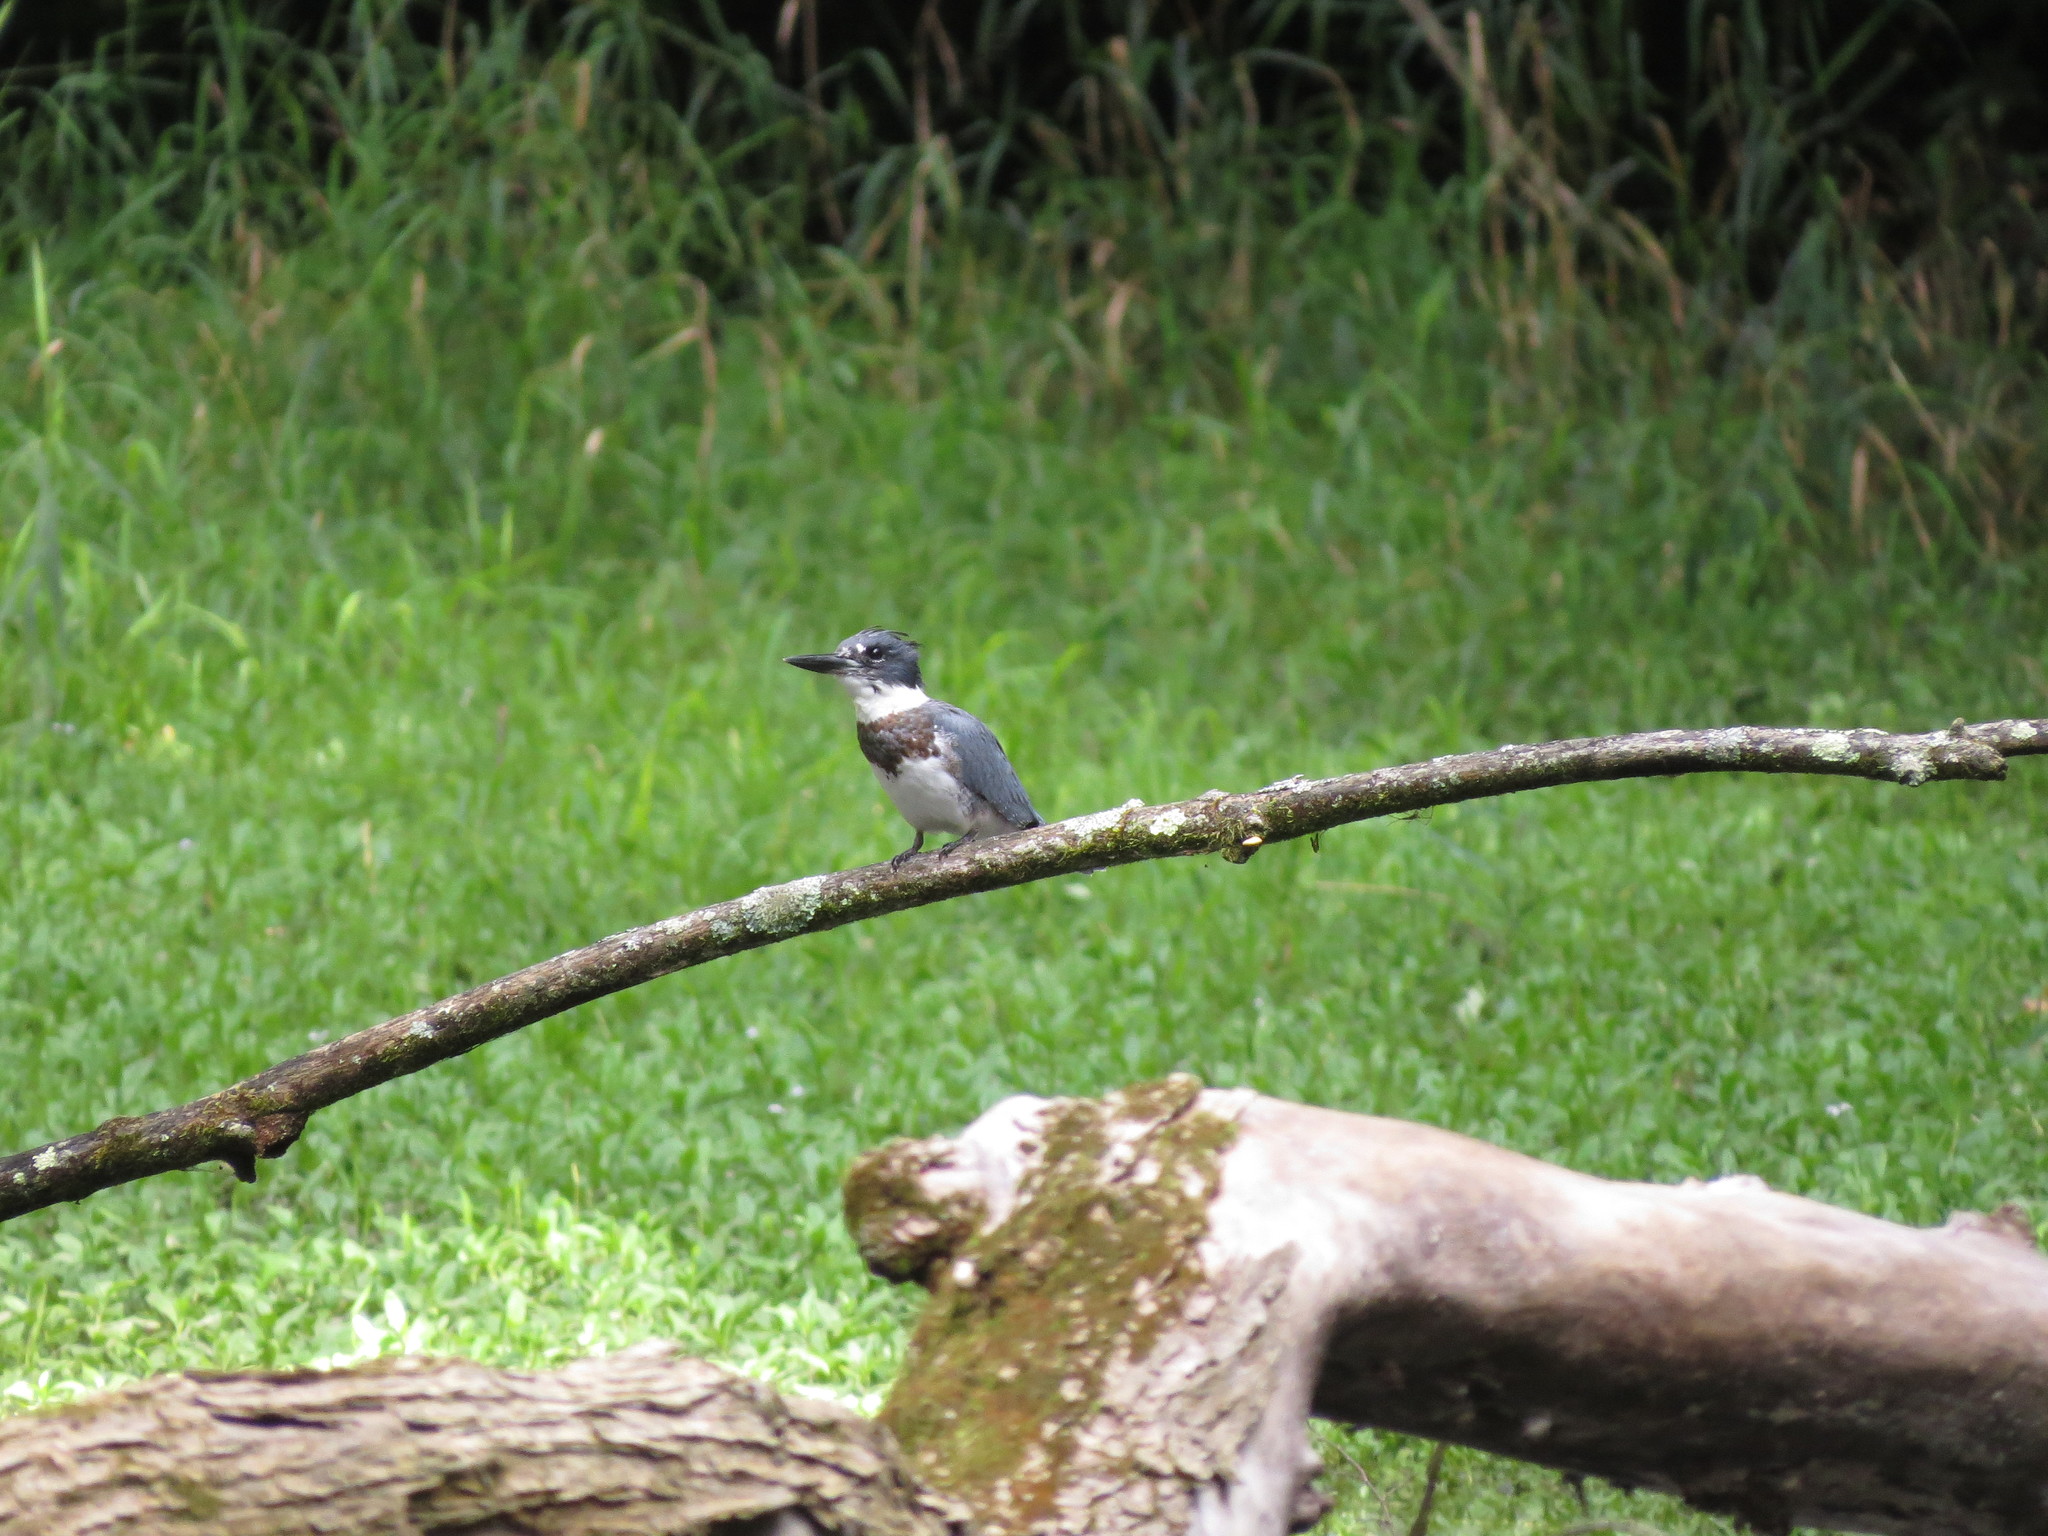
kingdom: Animalia
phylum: Chordata
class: Aves
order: Coraciiformes
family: Alcedinidae
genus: Megaceryle
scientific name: Megaceryle alcyon
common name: Belted kingfisher
